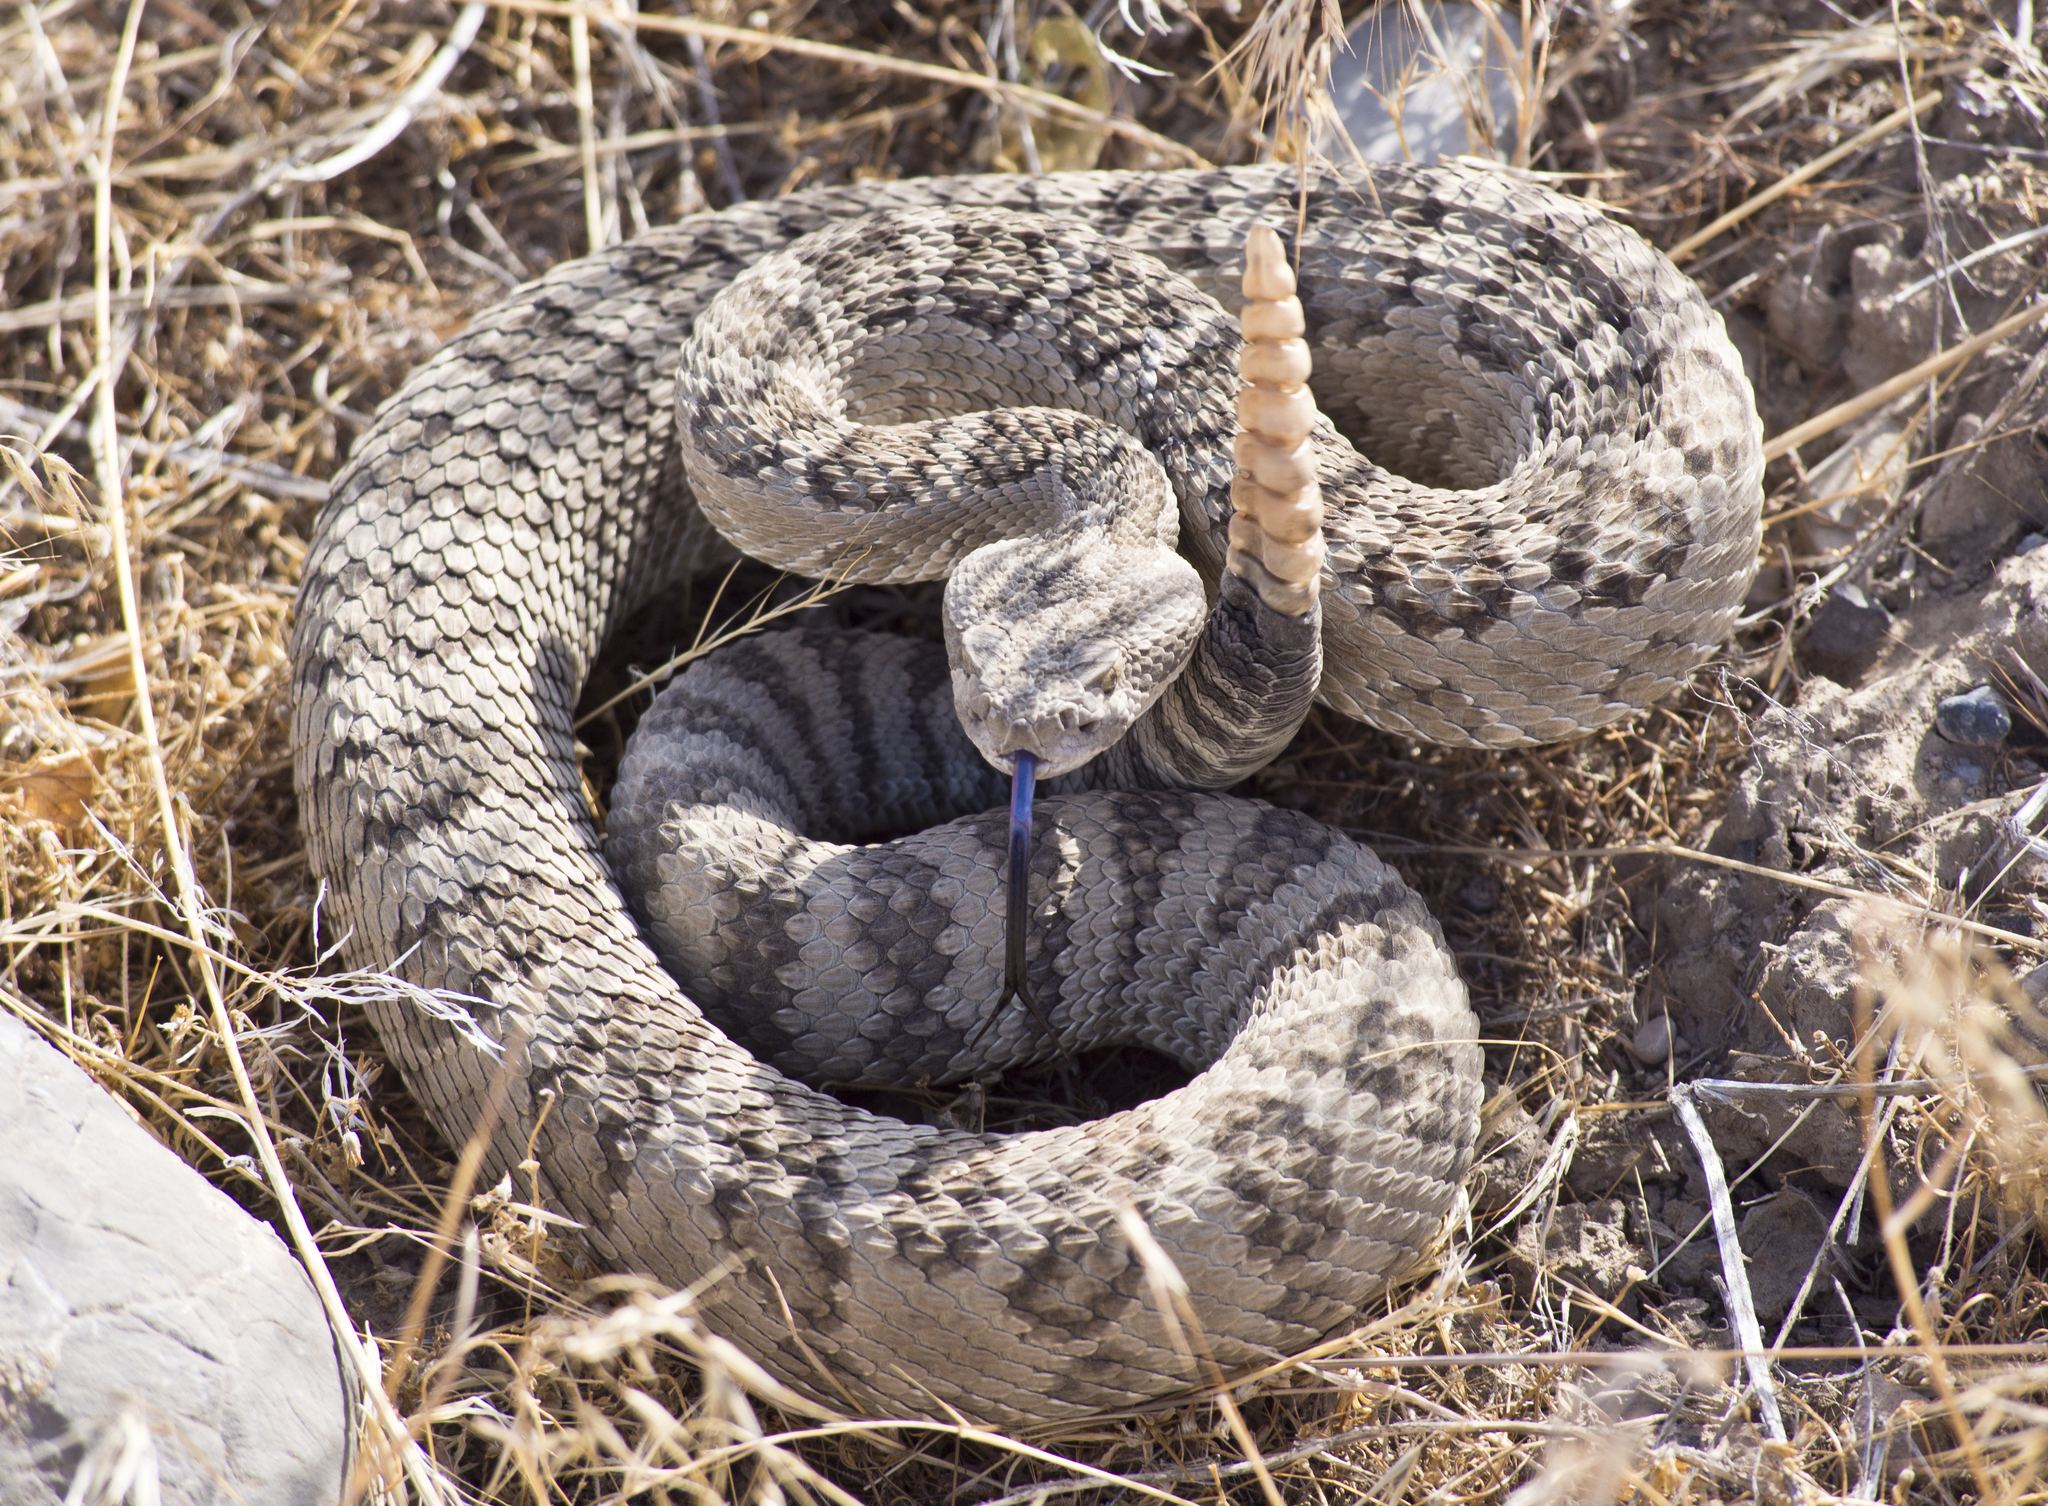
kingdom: Animalia
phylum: Chordata
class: Squamata
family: Viperidae
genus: Crotalus
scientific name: Crotalus oreganus
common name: Abyssus
